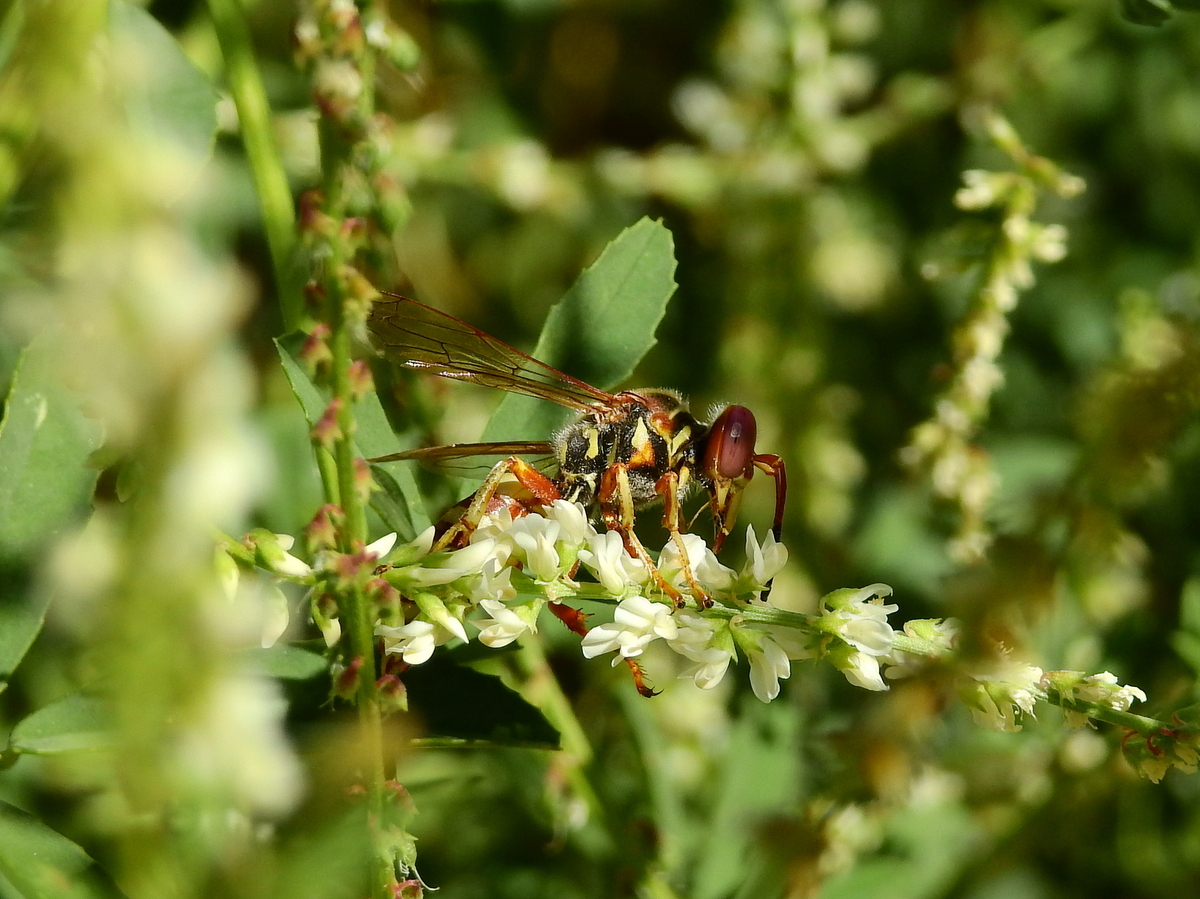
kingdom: Animalia
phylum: Arthropoda
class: Insecta
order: Hymenoptera
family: Crabronidae
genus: Rubrica
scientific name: Rubrica nasuta
